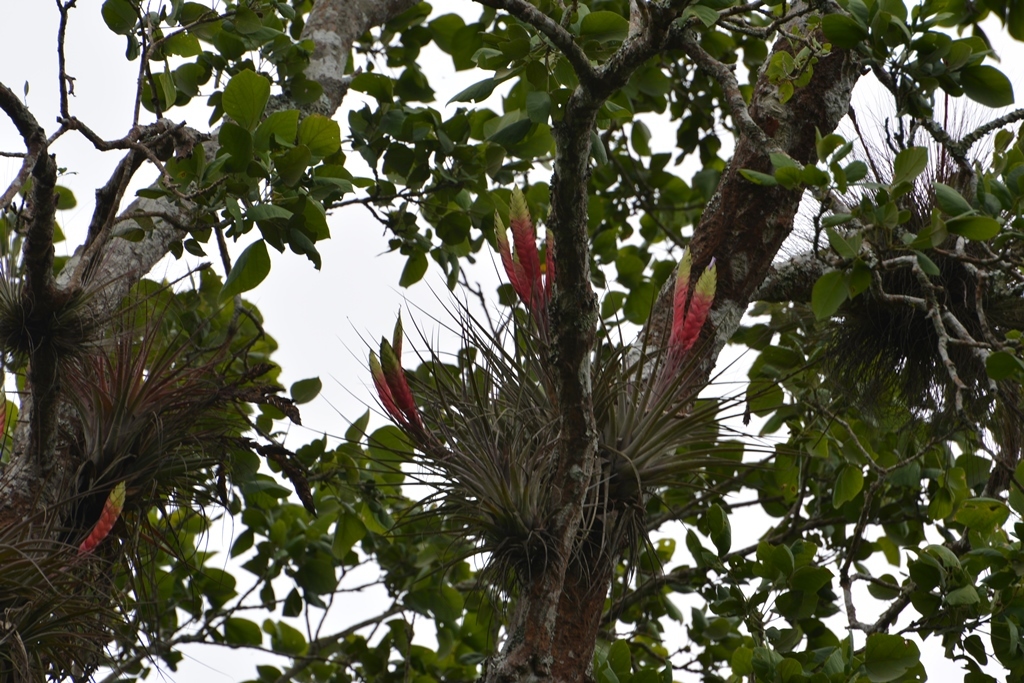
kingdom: Plantae
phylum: Tracheophyta
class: Liliopsida
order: Poales
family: Bromeliaceae
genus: Tillandsia
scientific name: Tillandsia zoquensis
